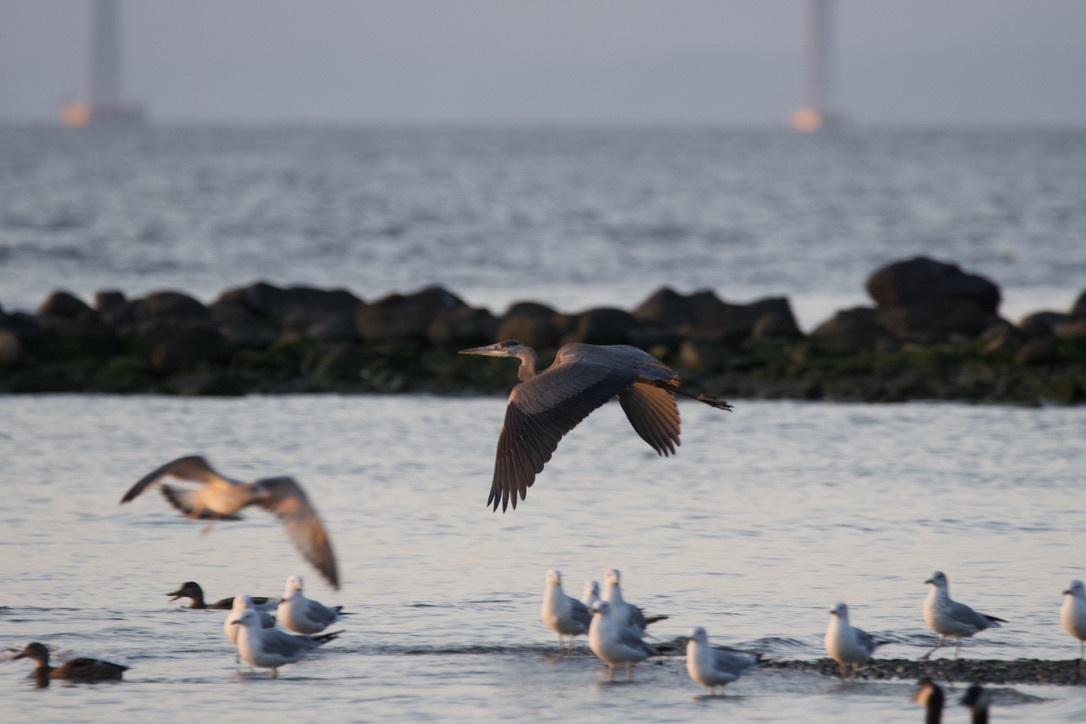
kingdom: Animalia
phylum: Chordata
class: Aves
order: Pelecaniformes
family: Ardeidae
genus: Ardea
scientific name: Ardea herodias
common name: Great blue heron
